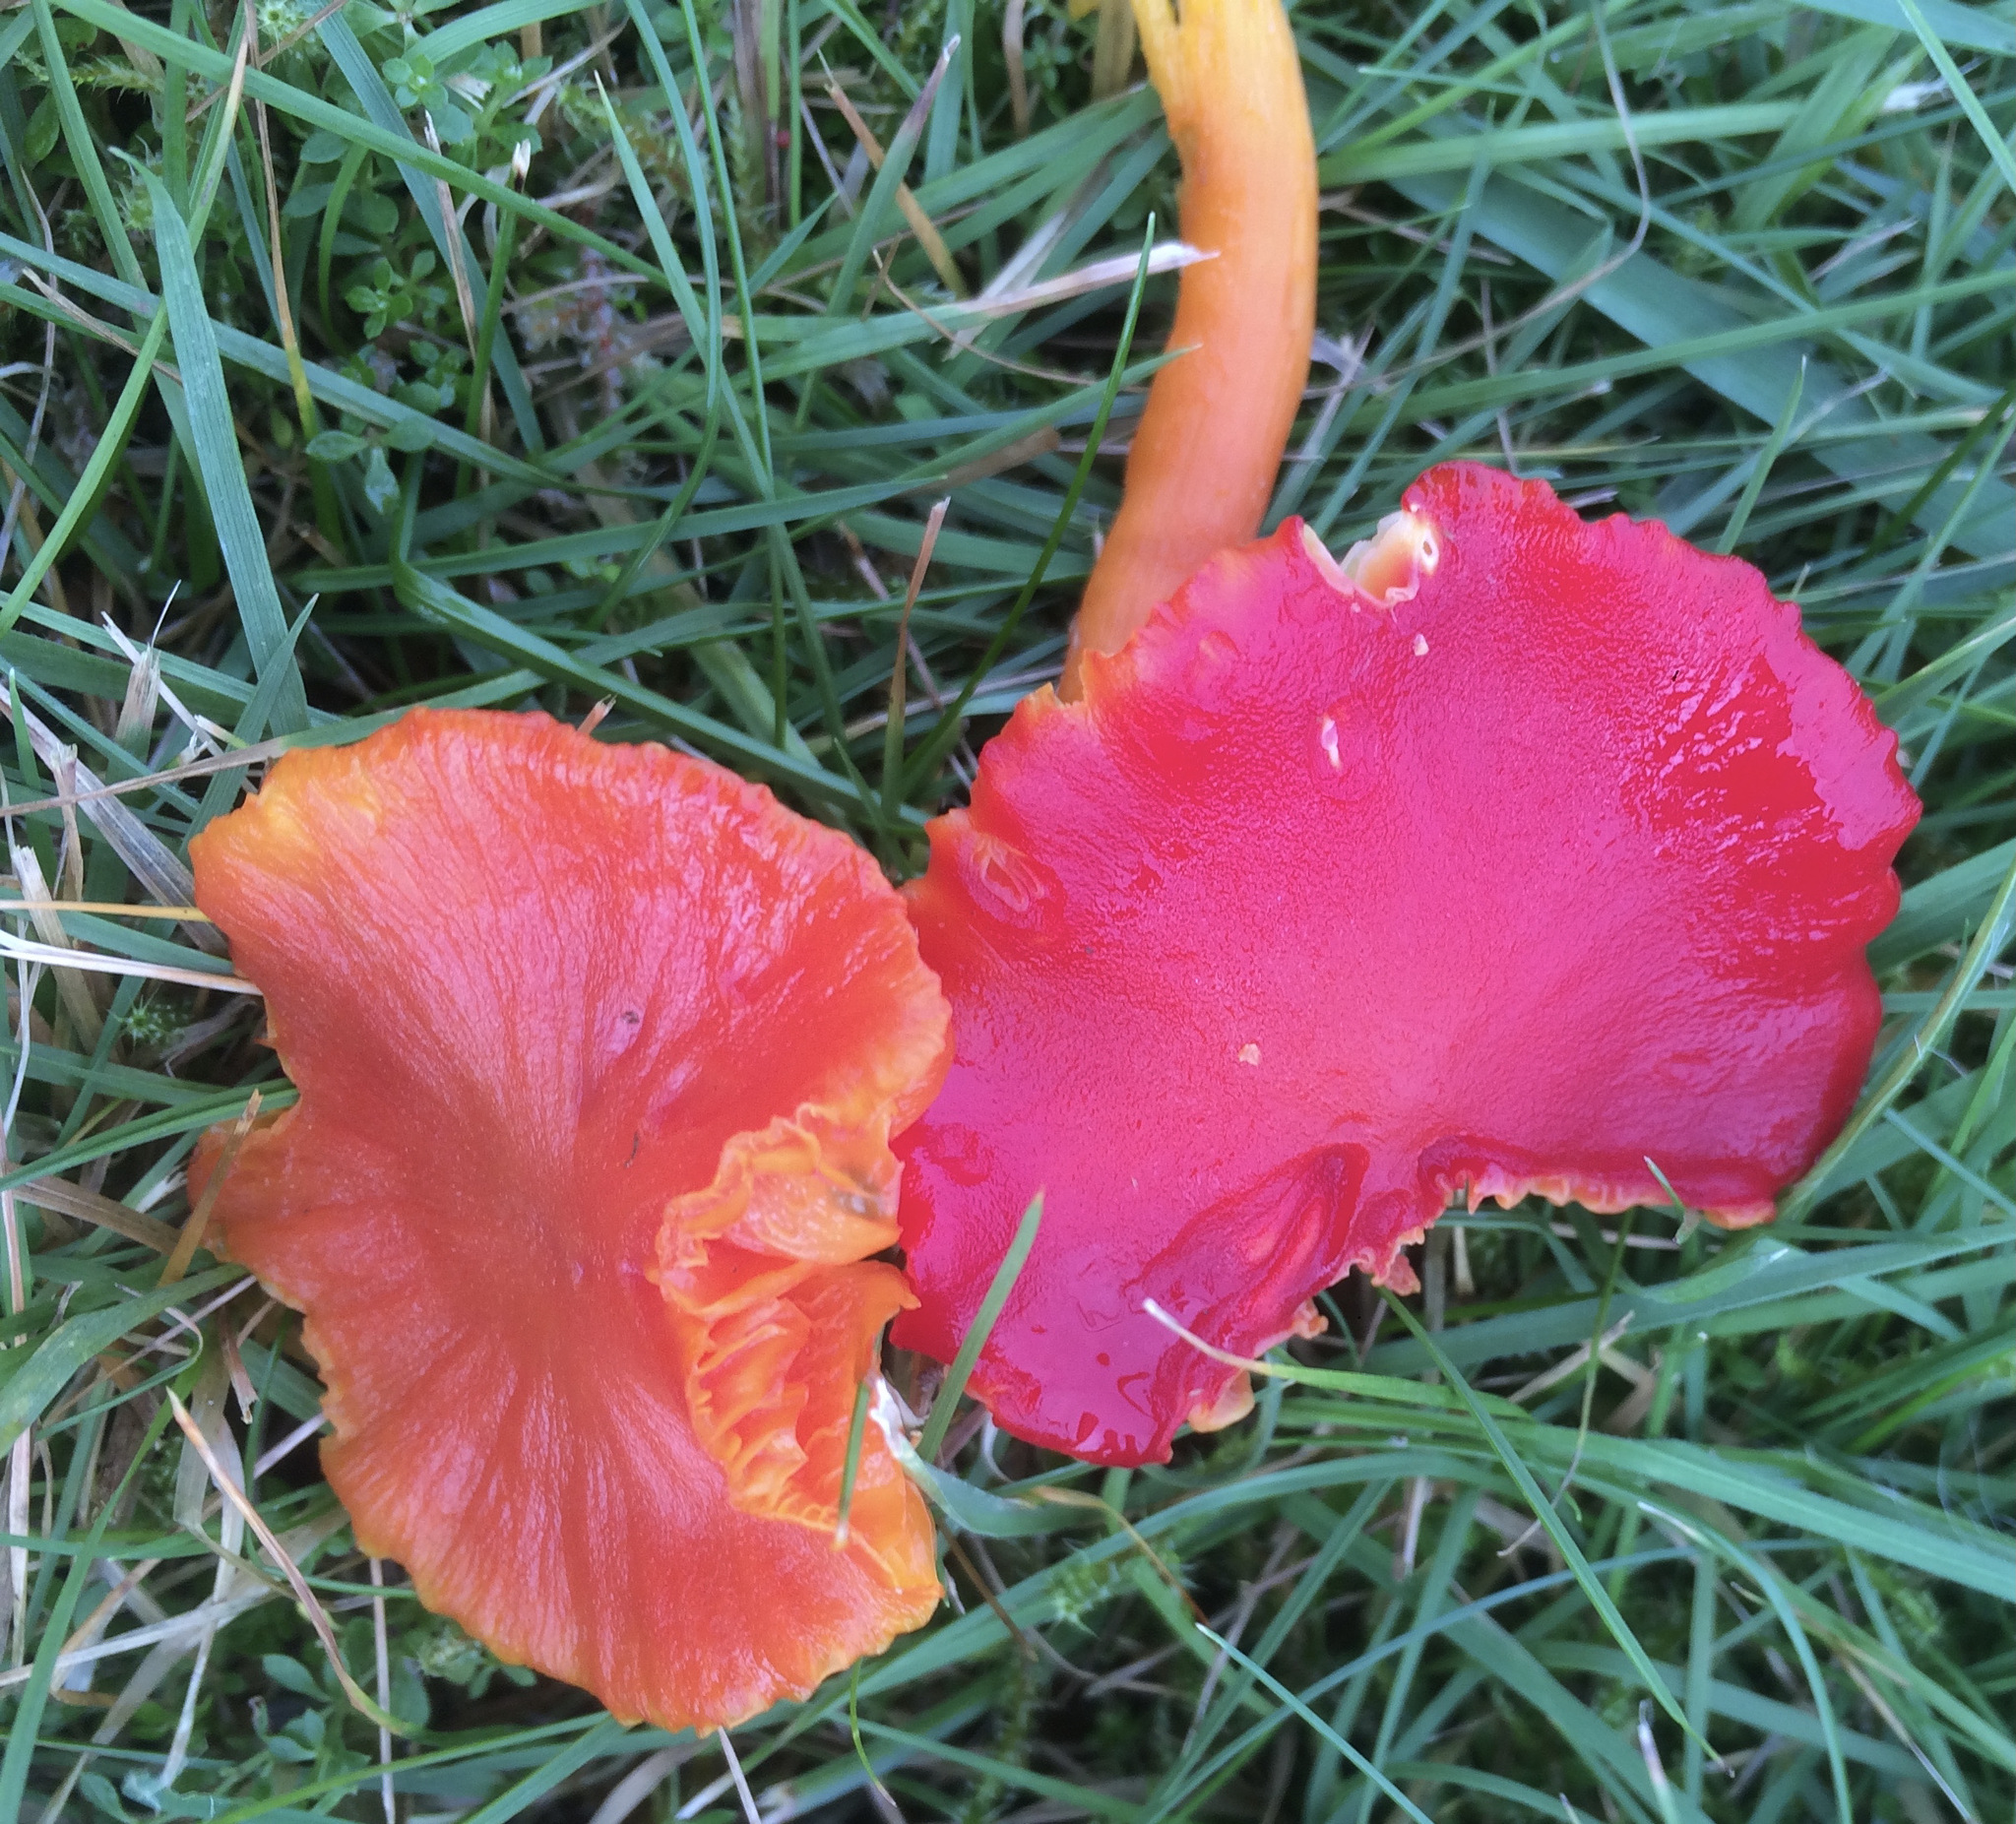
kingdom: Fungi
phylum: Basidiomycota
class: Agaricomycetes
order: Agaricales
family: Hygrophoraceae
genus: Hygrocybe
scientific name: Hygrocybe coccinea
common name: Scarlet hood
